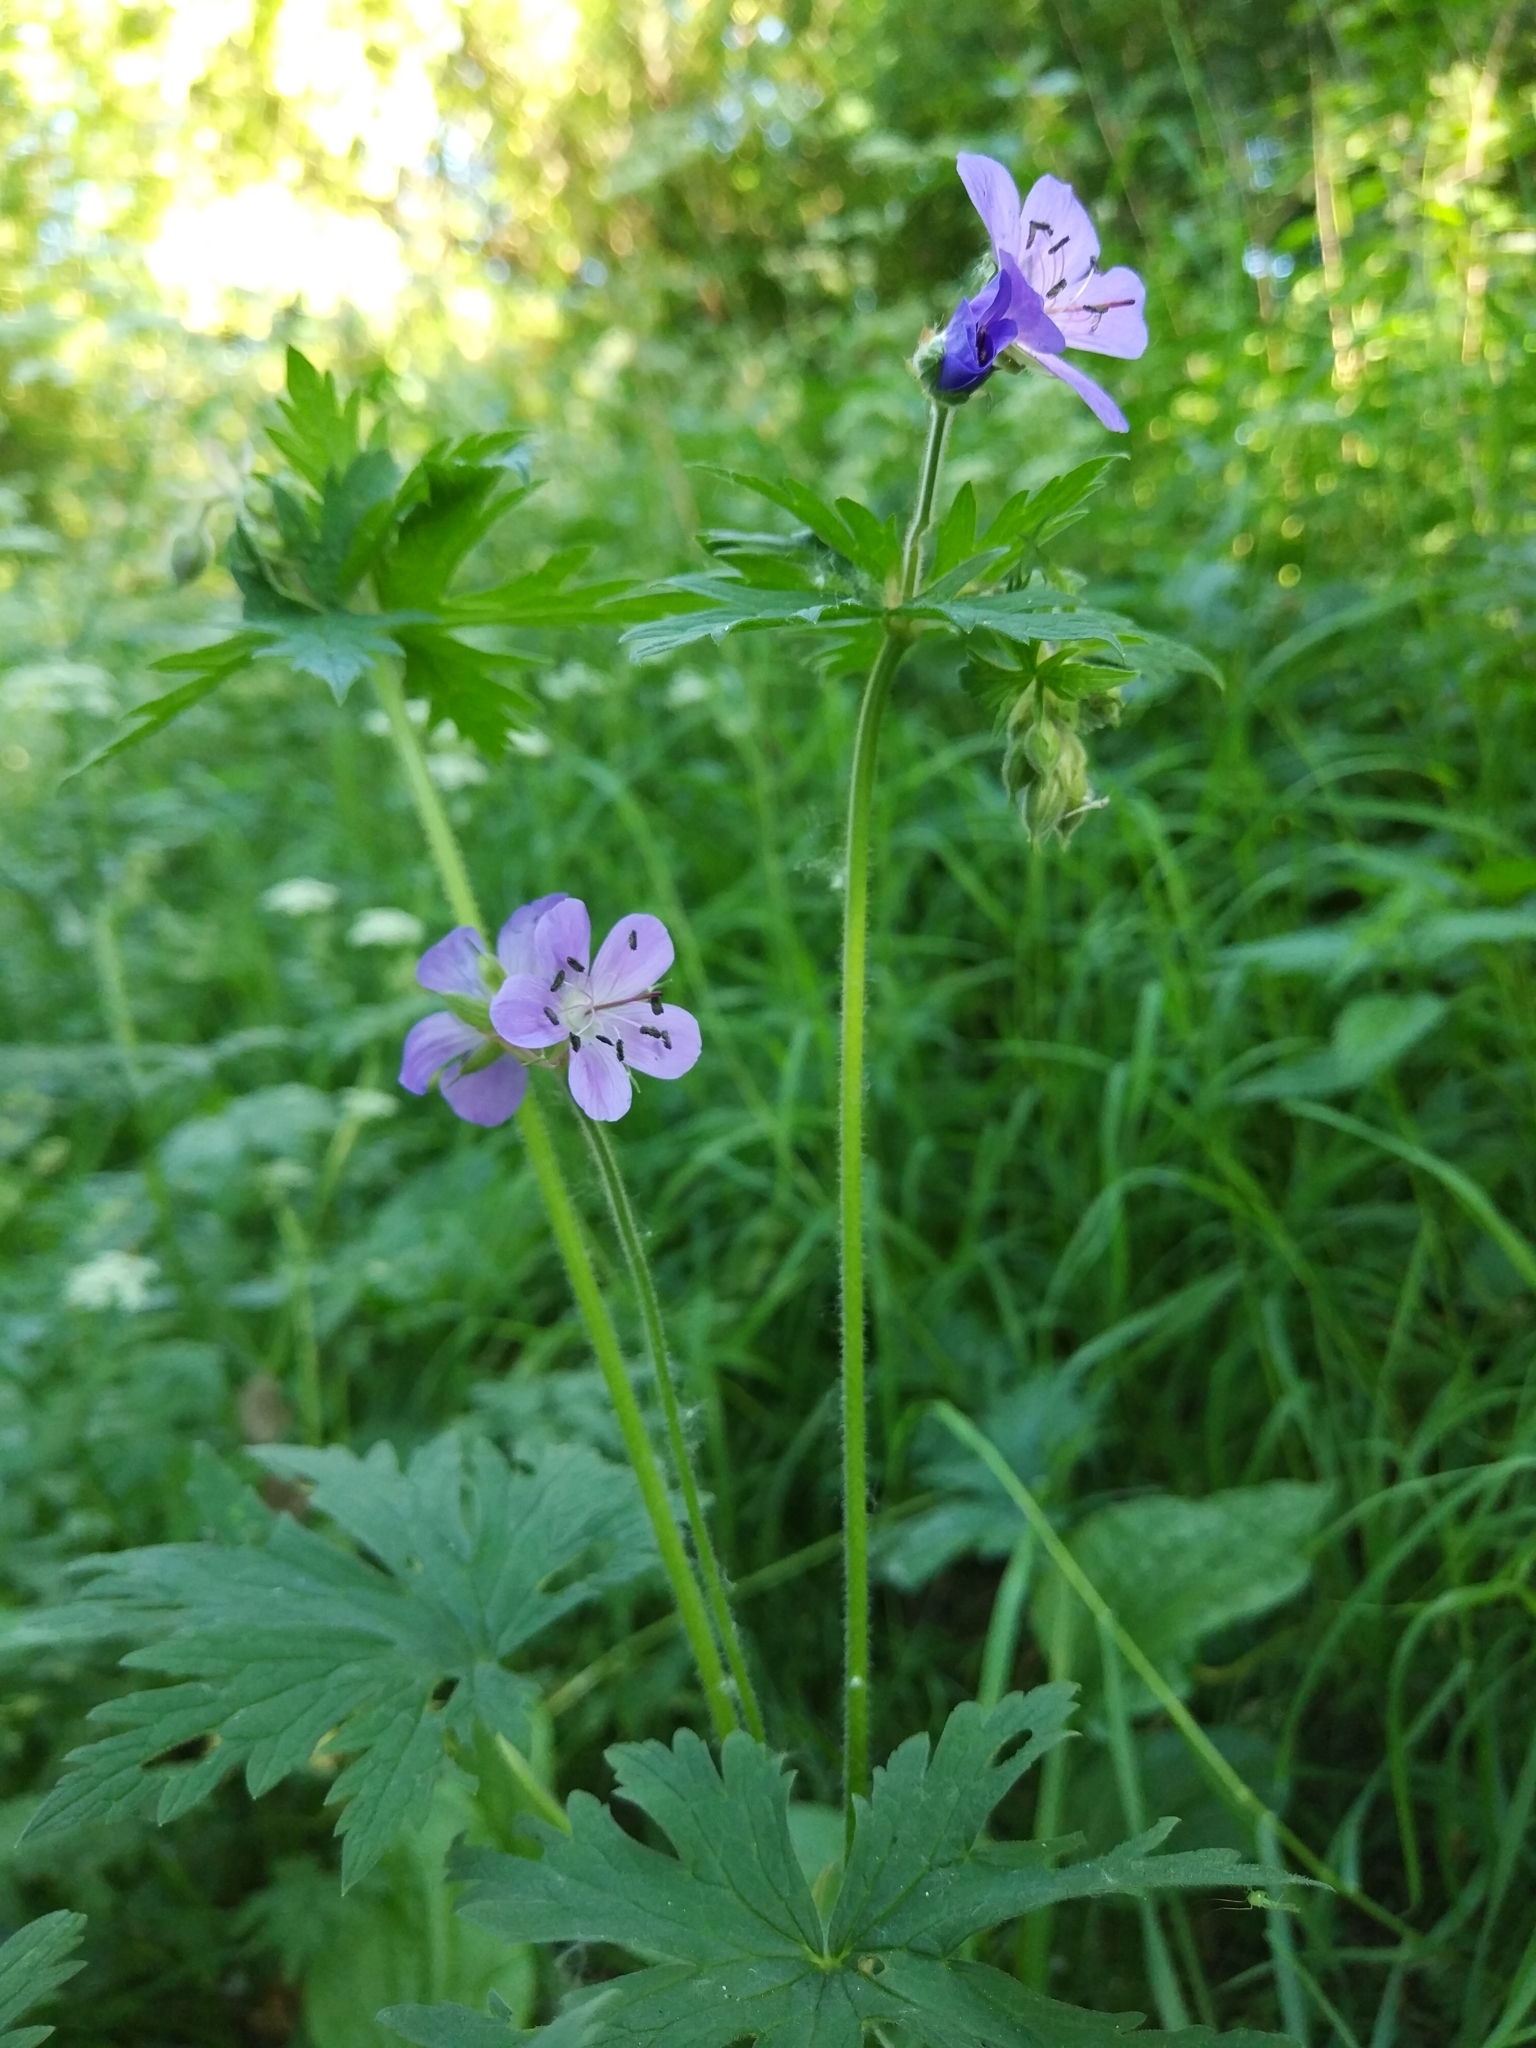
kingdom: Plantae
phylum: Tracheophyta
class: Magnoliopsida
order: Geraniales
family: Geraniaceae
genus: Geranium
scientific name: Geranium pratense
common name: Meadow crane's-bill
